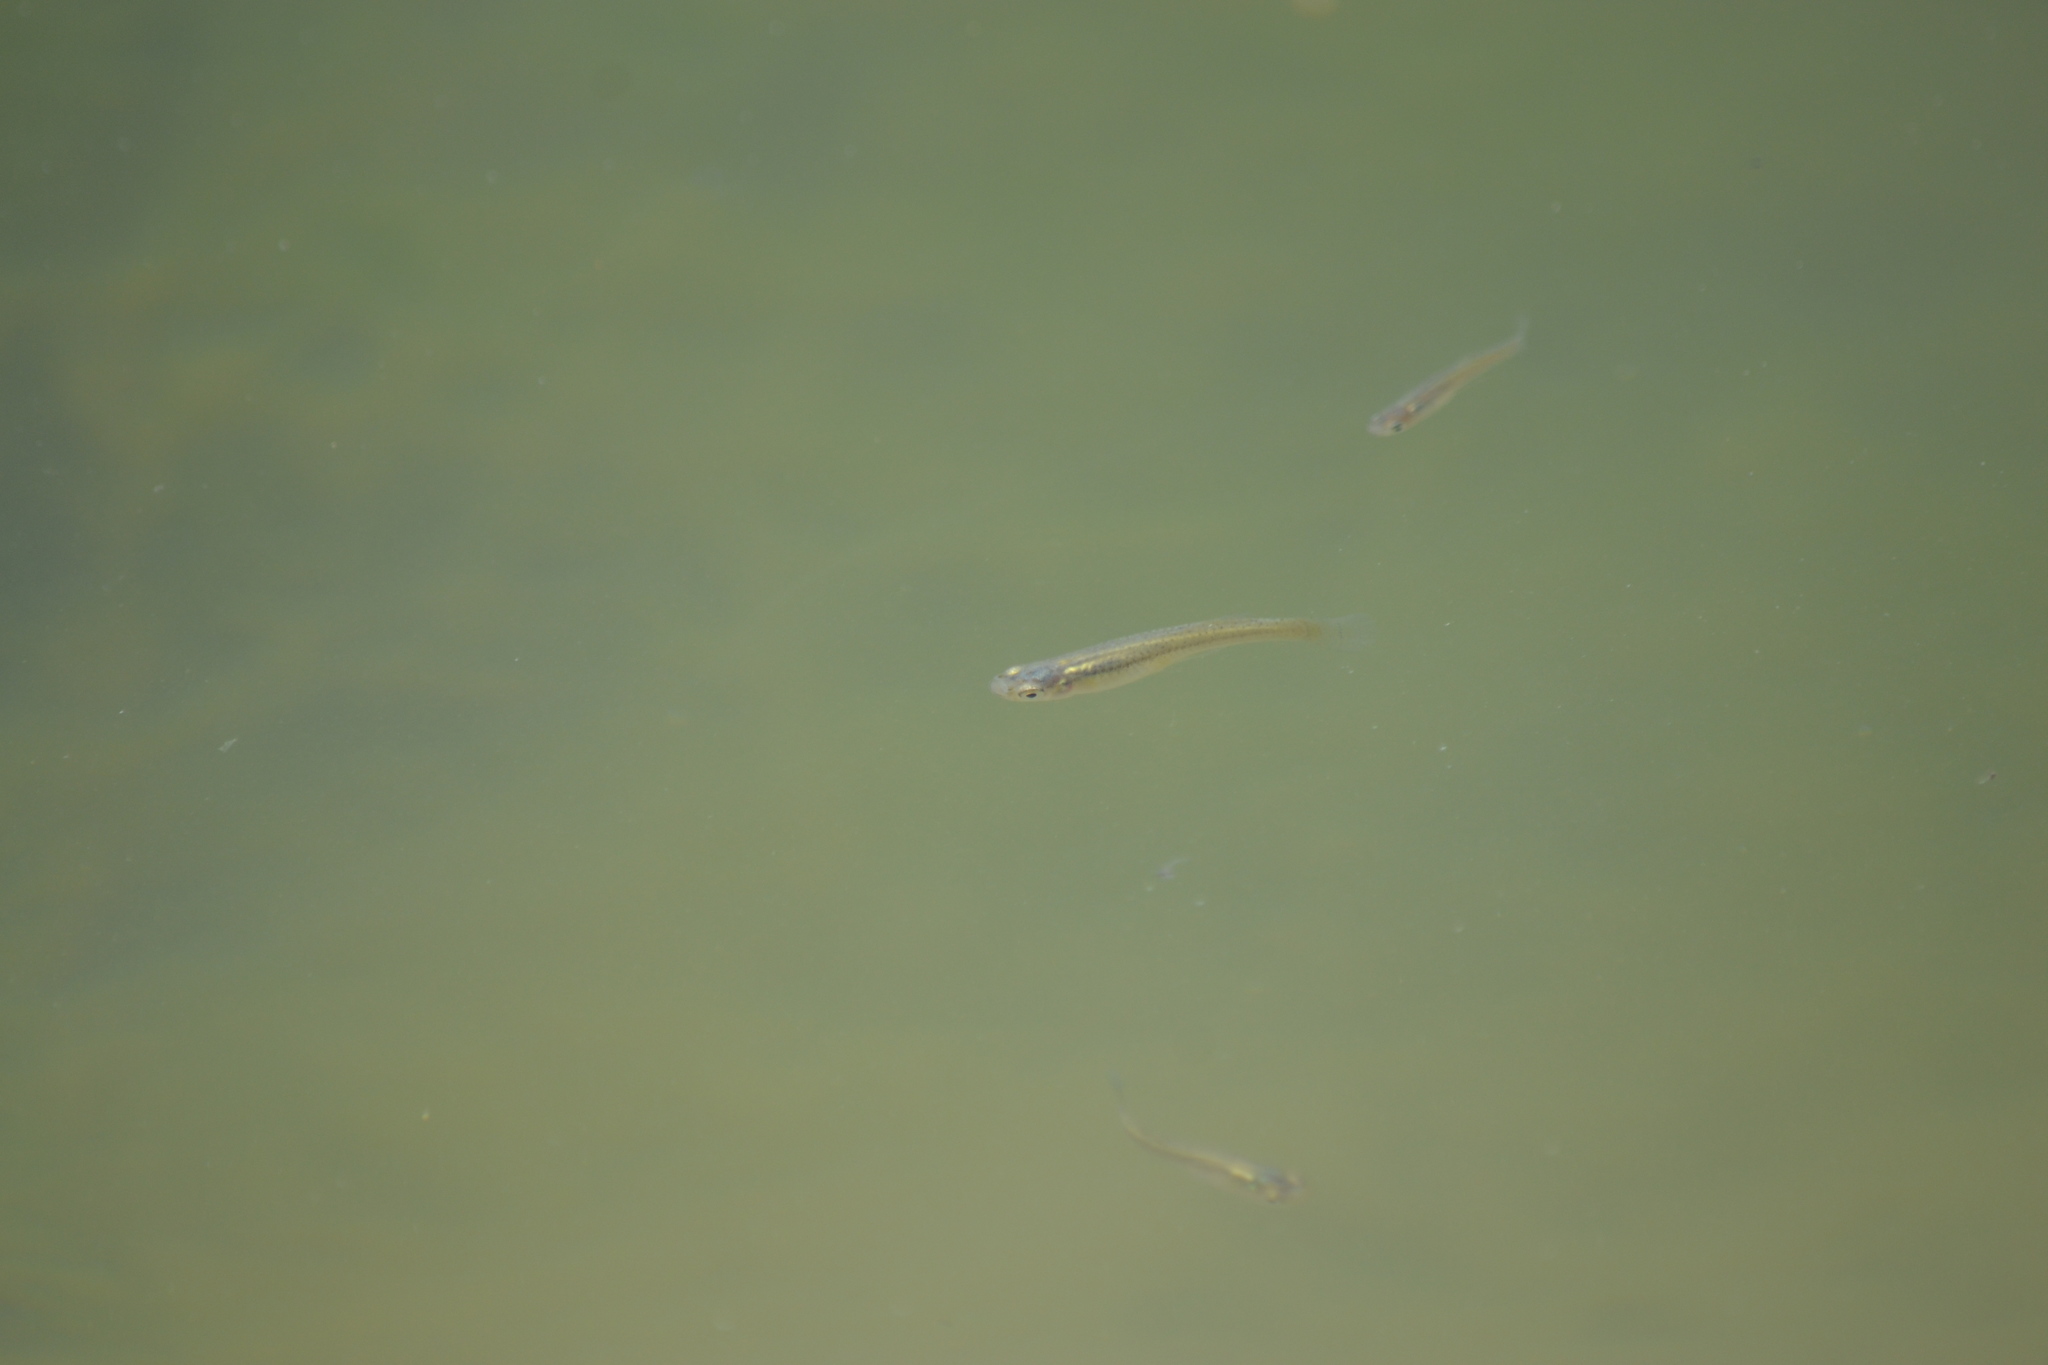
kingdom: Animalia
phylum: Chordata
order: Cyprinodontiformes
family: Poeciliidae
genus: Gambusia
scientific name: Gambusia affinis
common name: Mosquitofish
